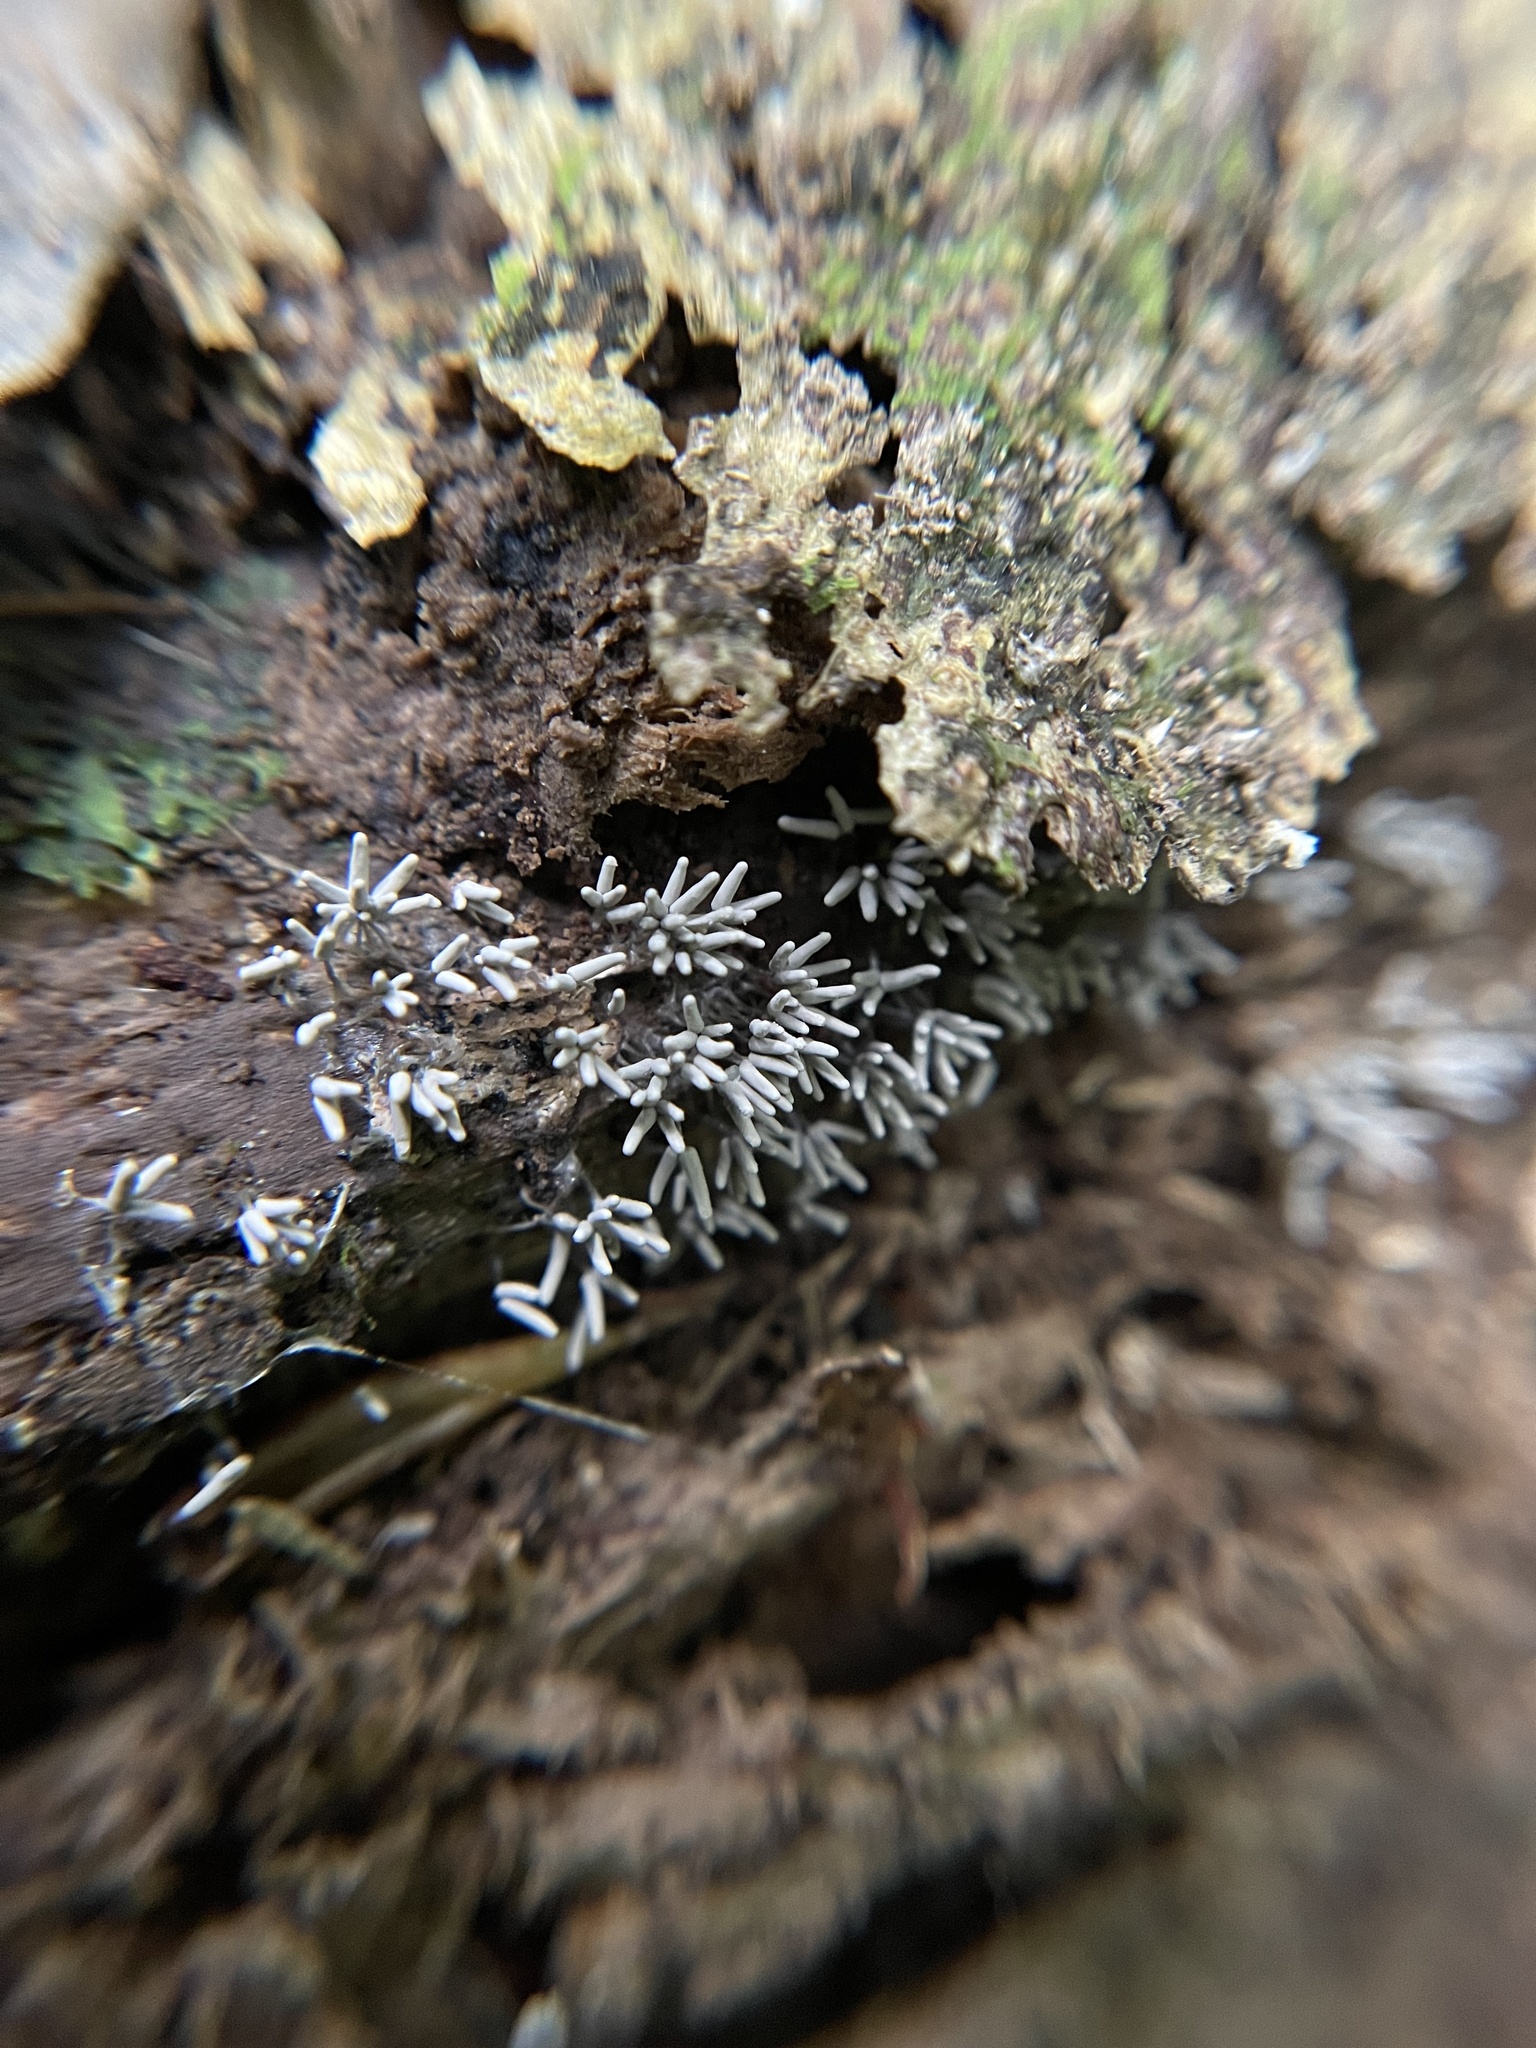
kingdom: Protozoa
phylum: Mycetozoa
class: Myxomycetes
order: Trichiales
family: Arcyriaceae
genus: Arcyria
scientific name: Arcyria cinerea
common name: White carnival candy slime mold
